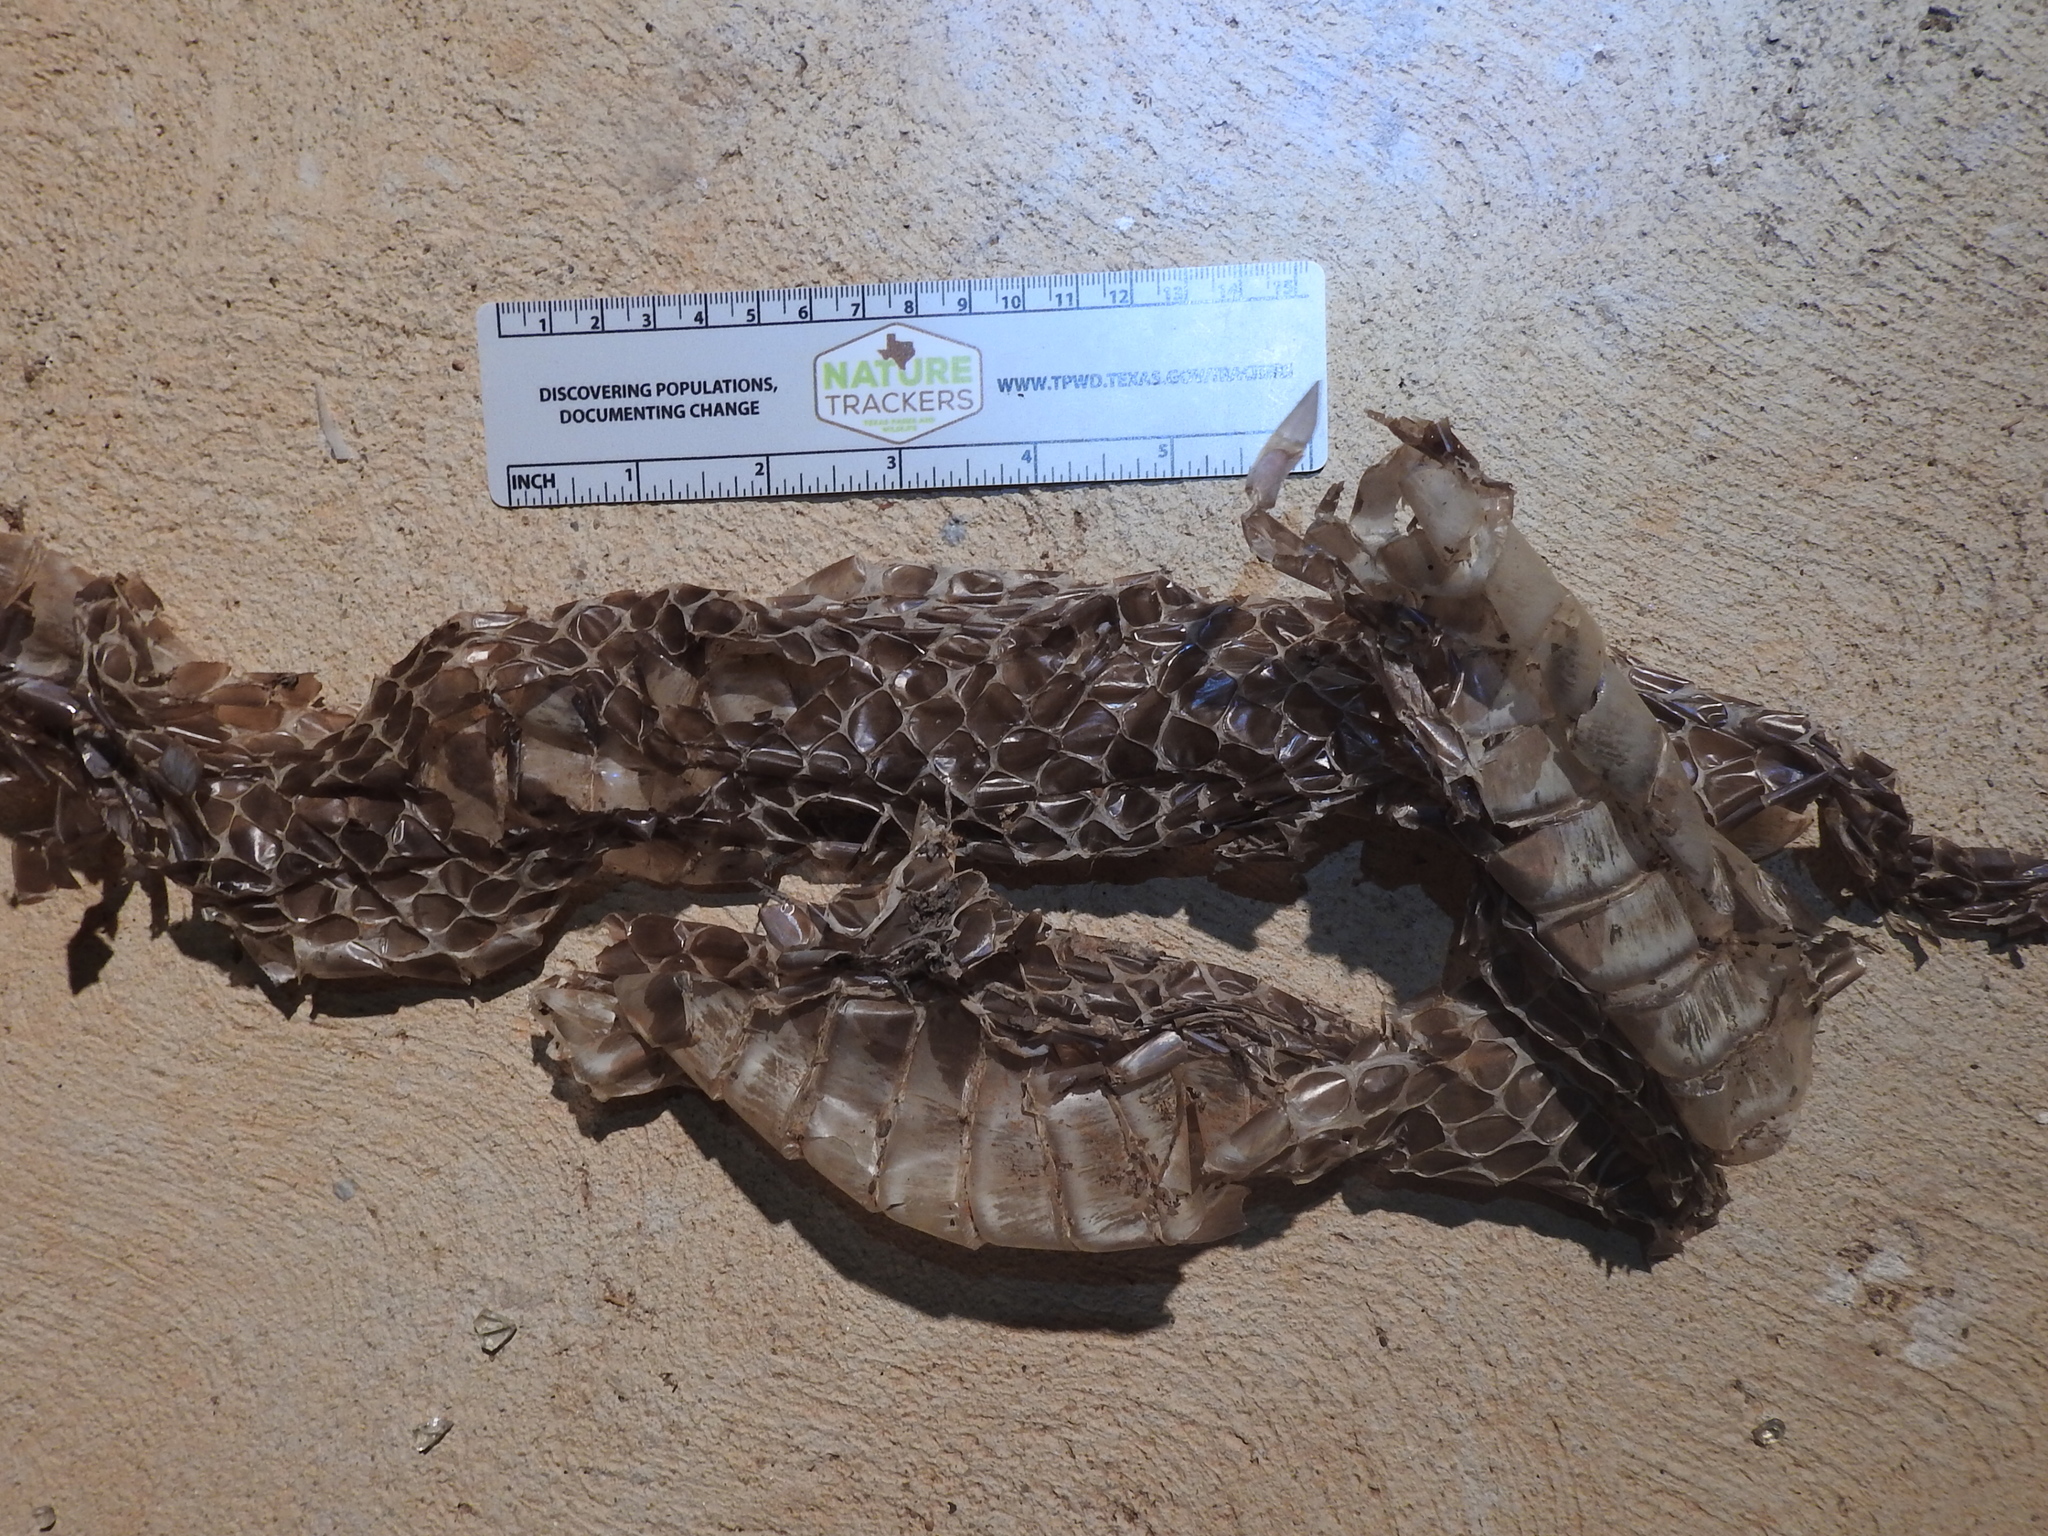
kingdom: Animalia
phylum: Chordata
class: Squamata
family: Colubridae
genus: Drymarchon
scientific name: Drymarchon melanurus
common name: Central american indigo snake
